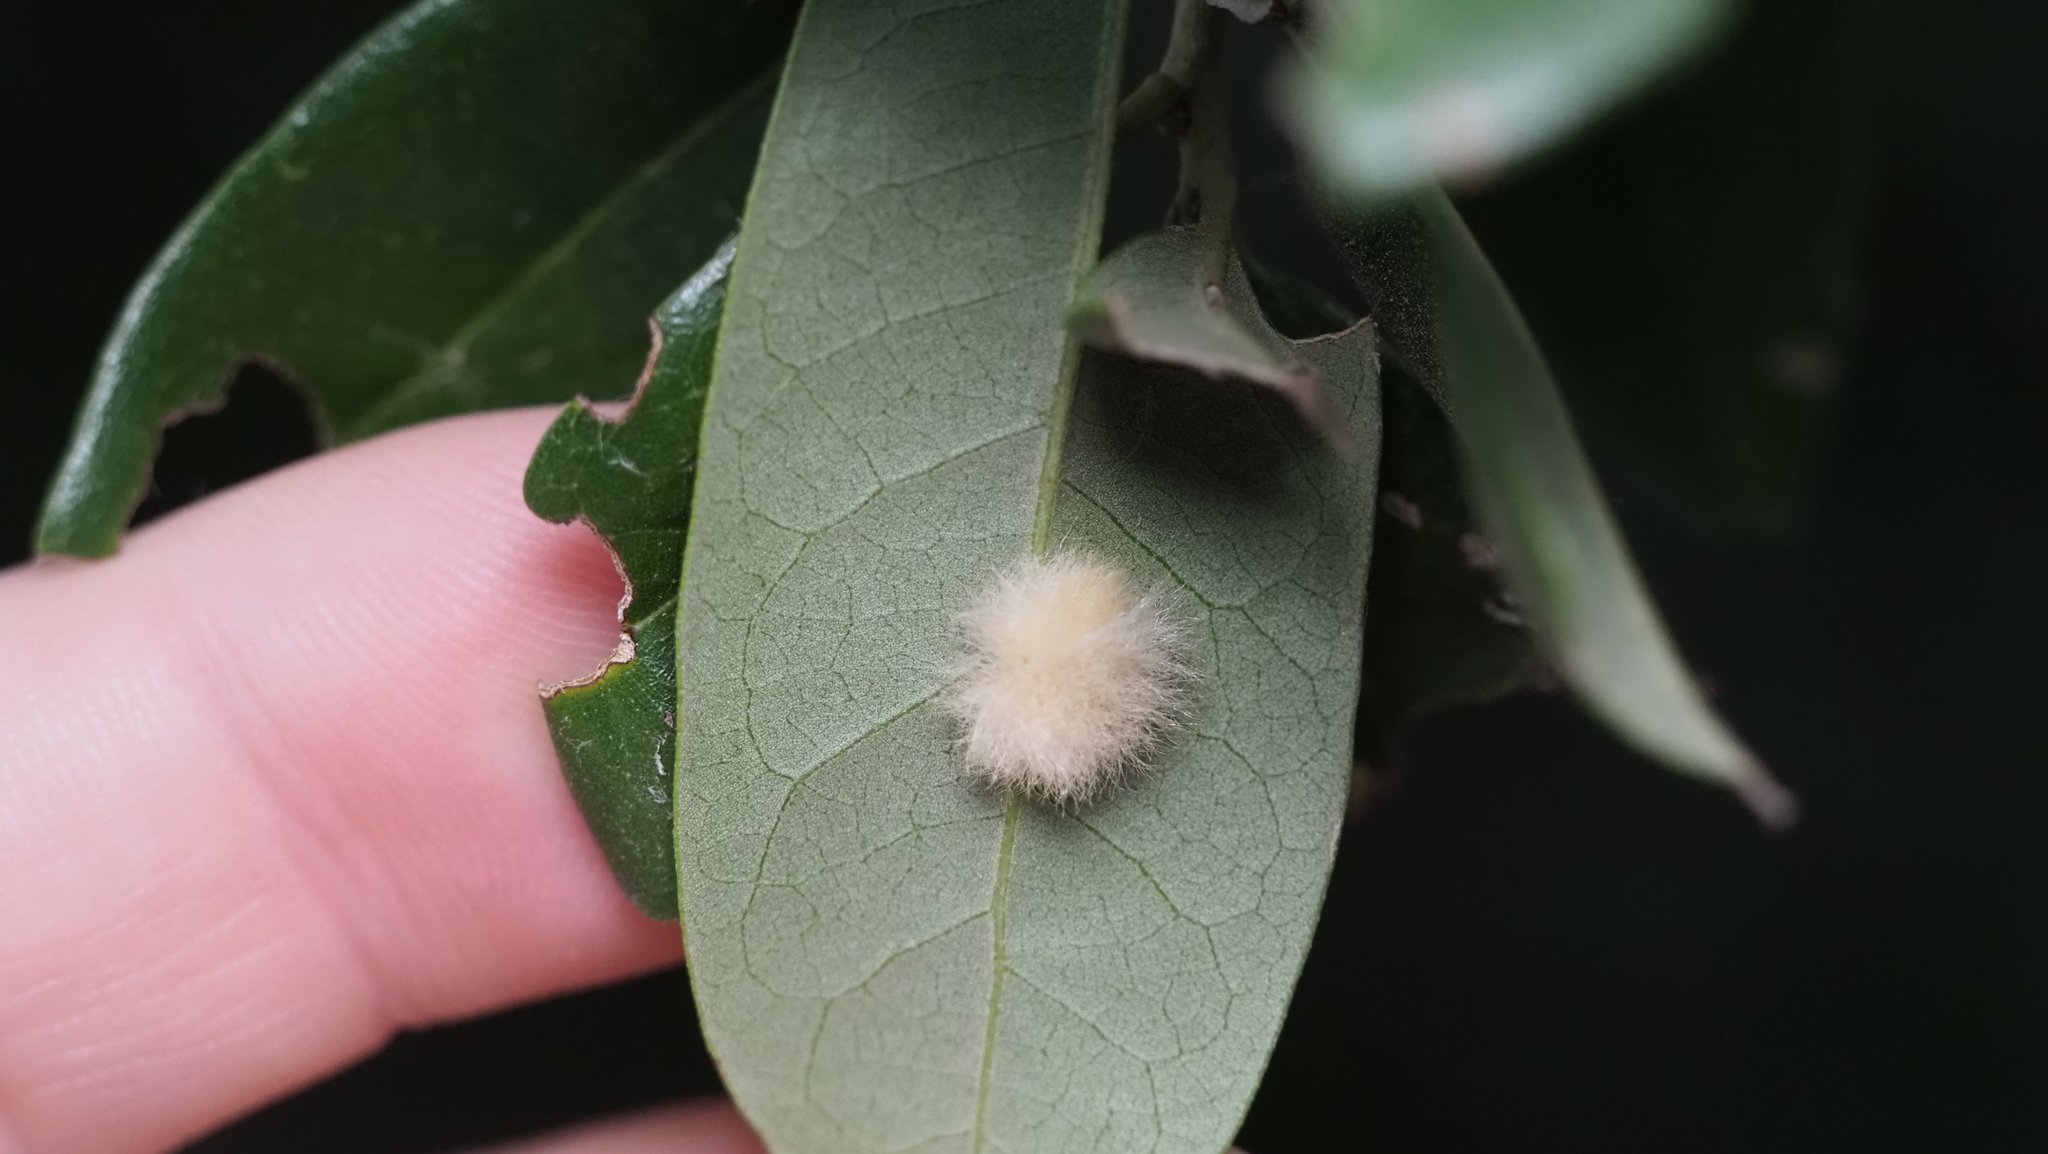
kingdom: Animalia
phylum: Arthropoda
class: Insecta
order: Hymenoptera
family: Cynipidae
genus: Andricus
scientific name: Andricus Druon quercuslanigerum
